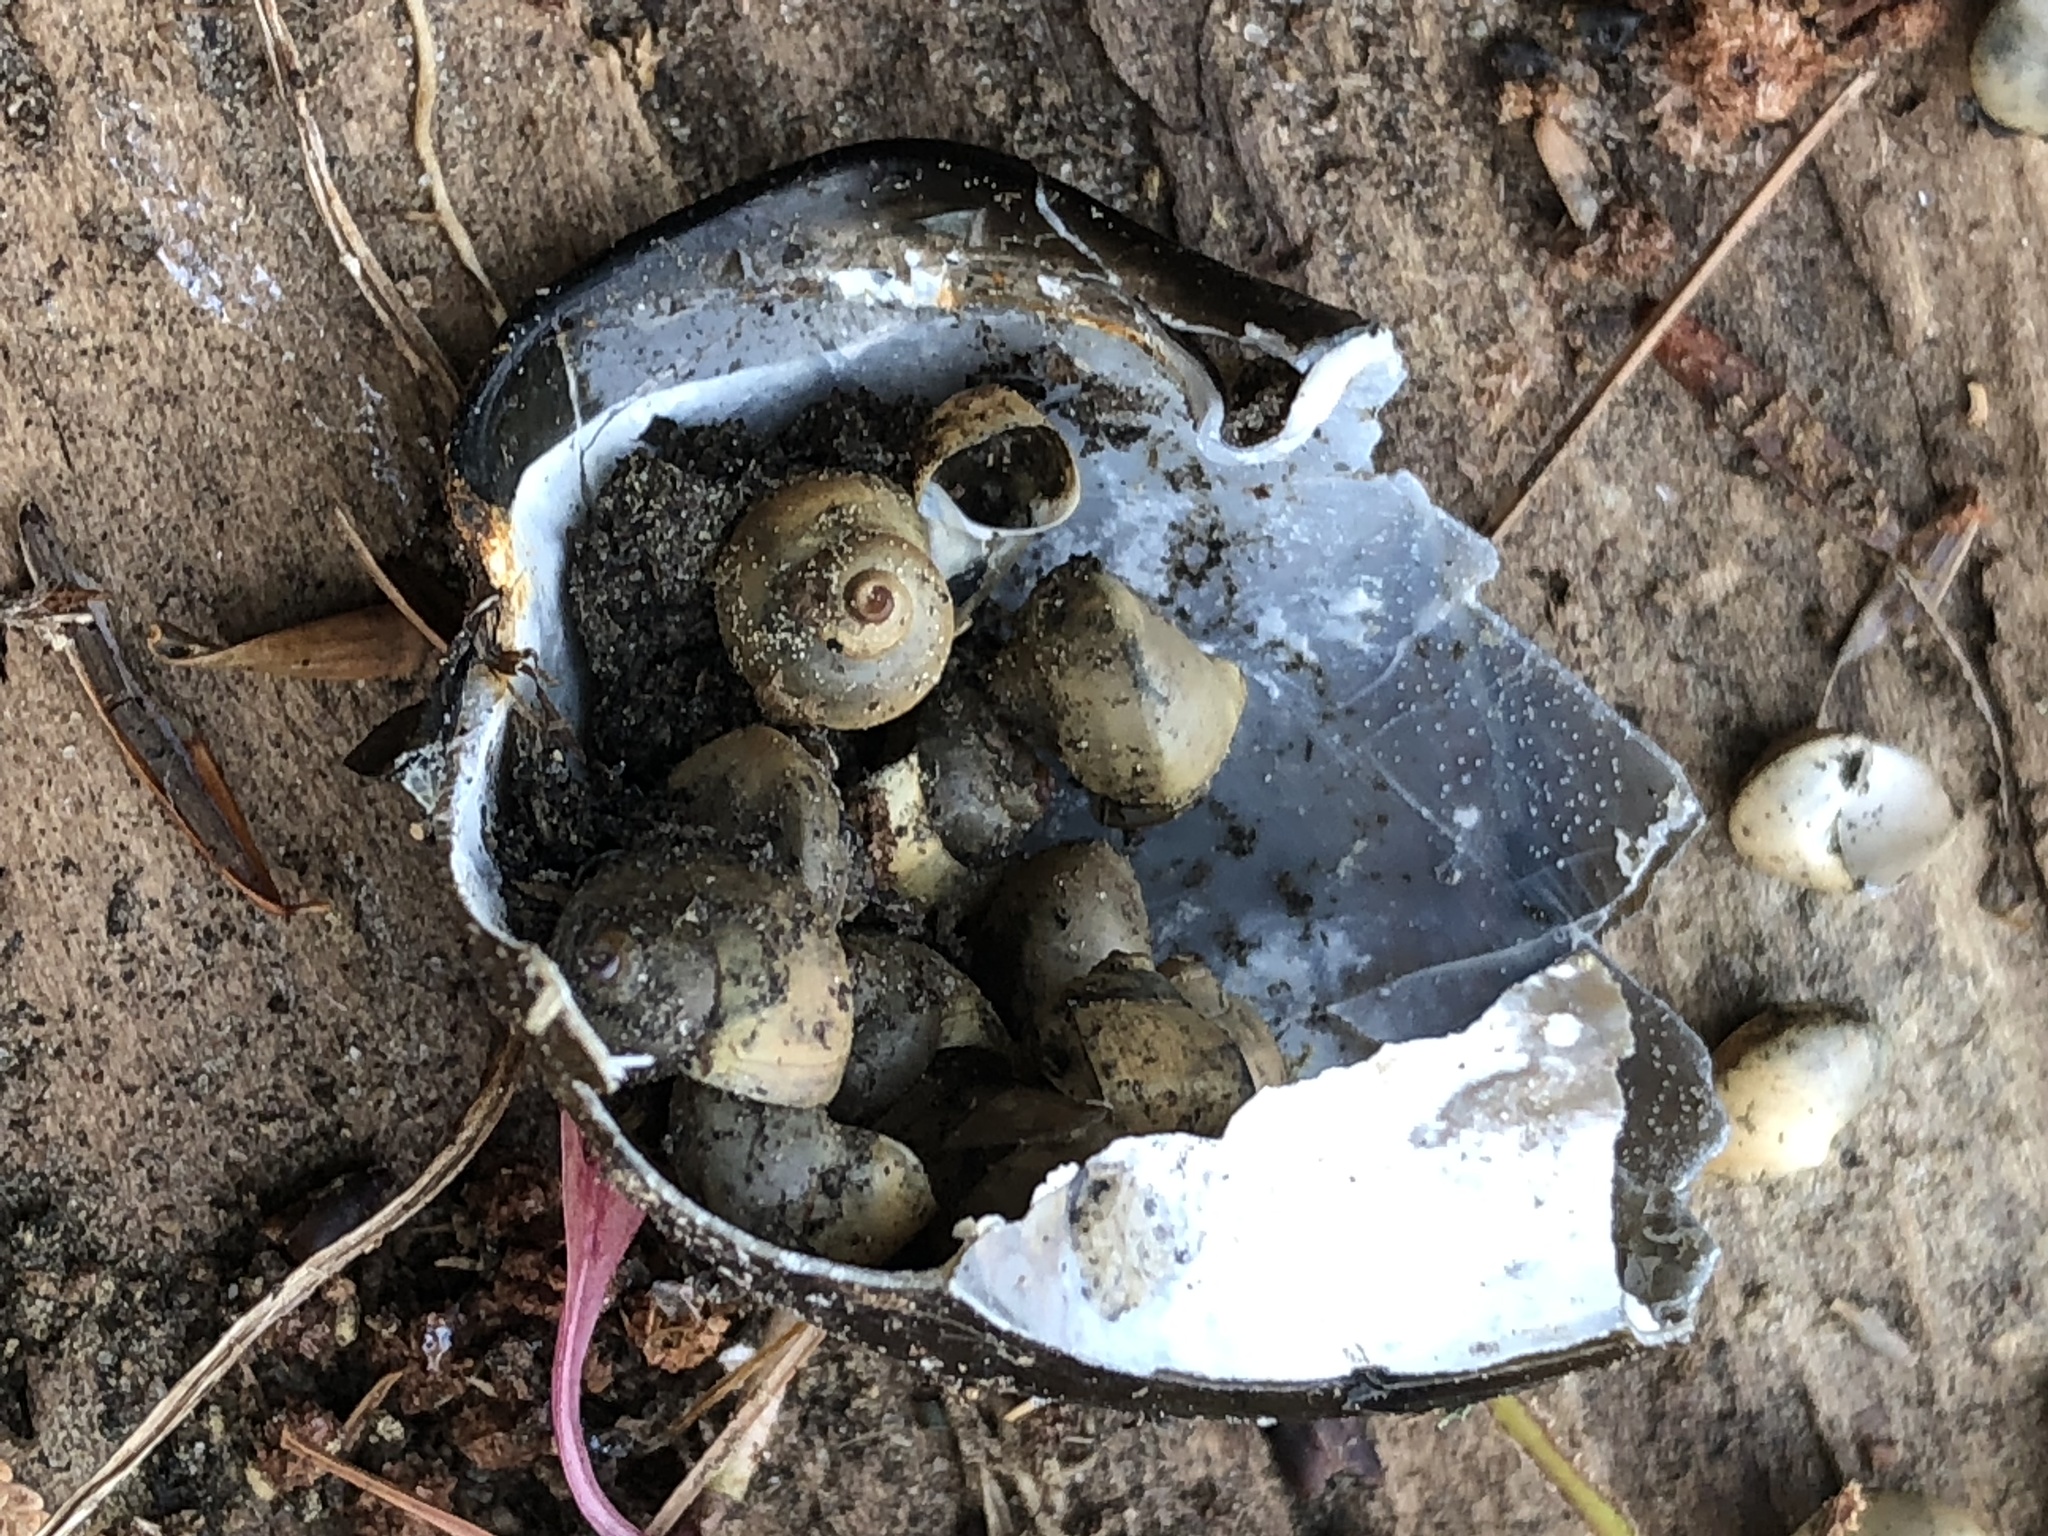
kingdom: Animalia
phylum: Mollusca
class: Gastropoda
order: Architaenioglossa
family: Viviparidae
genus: Cipangopaludina
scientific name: Cipangopaludina chinensis
